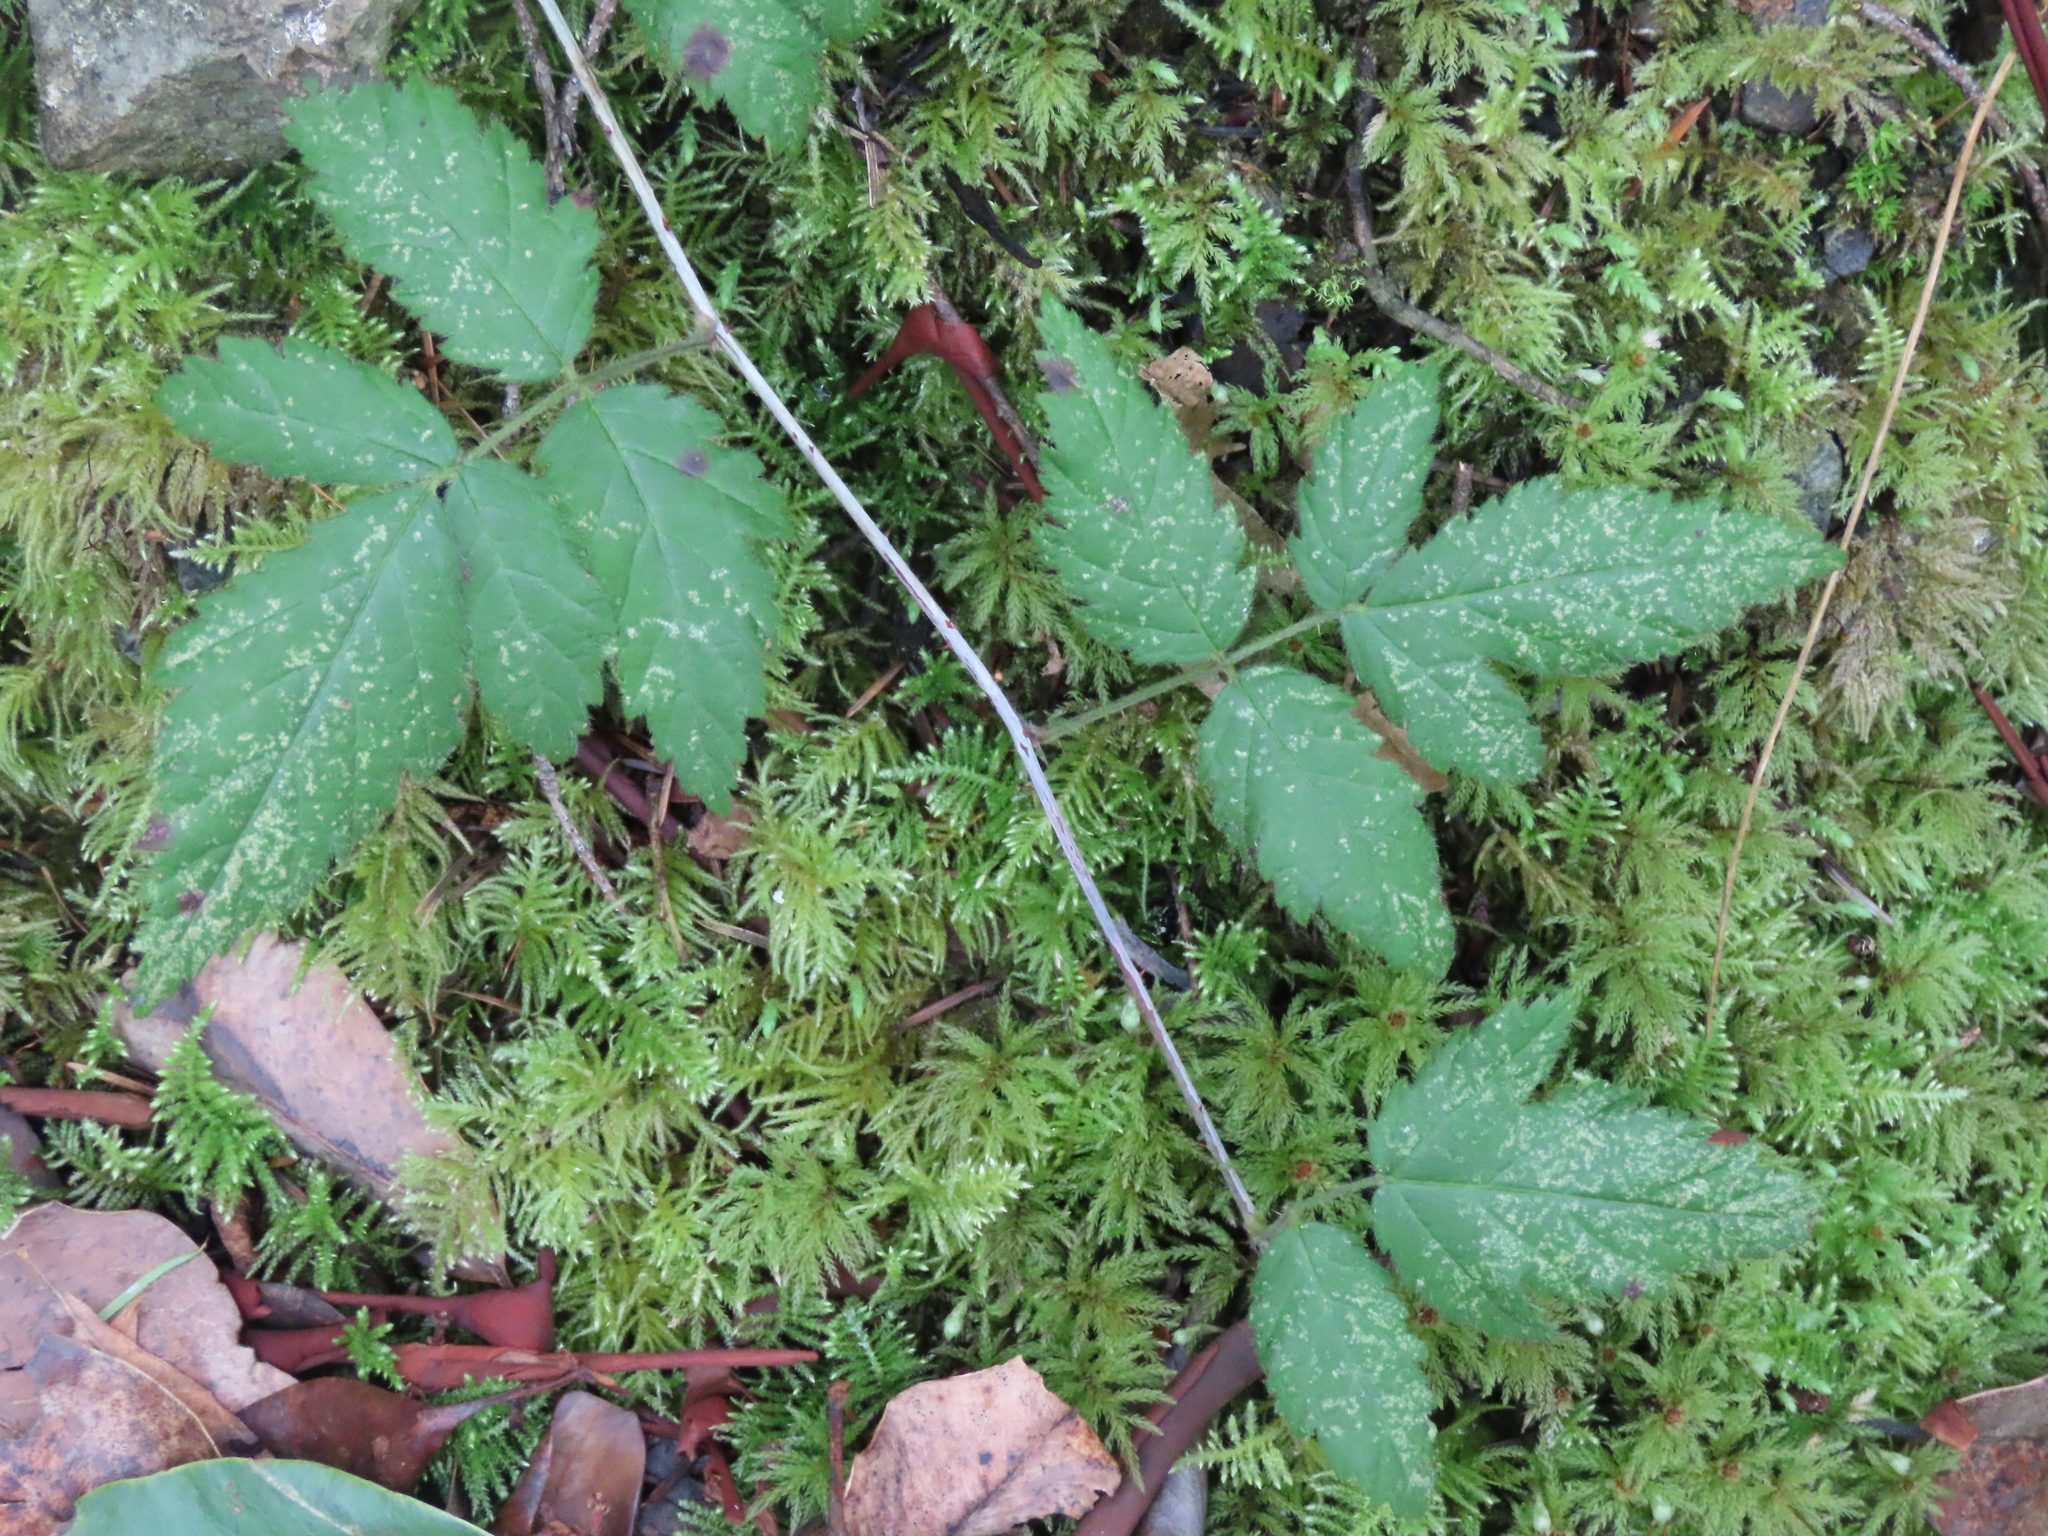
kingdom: Plantae
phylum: Tracheophyta
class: Magnoliopsida
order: Rosales
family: Rosaceae
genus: Rubus
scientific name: Rubus ursinus
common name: Pacific blackberry
